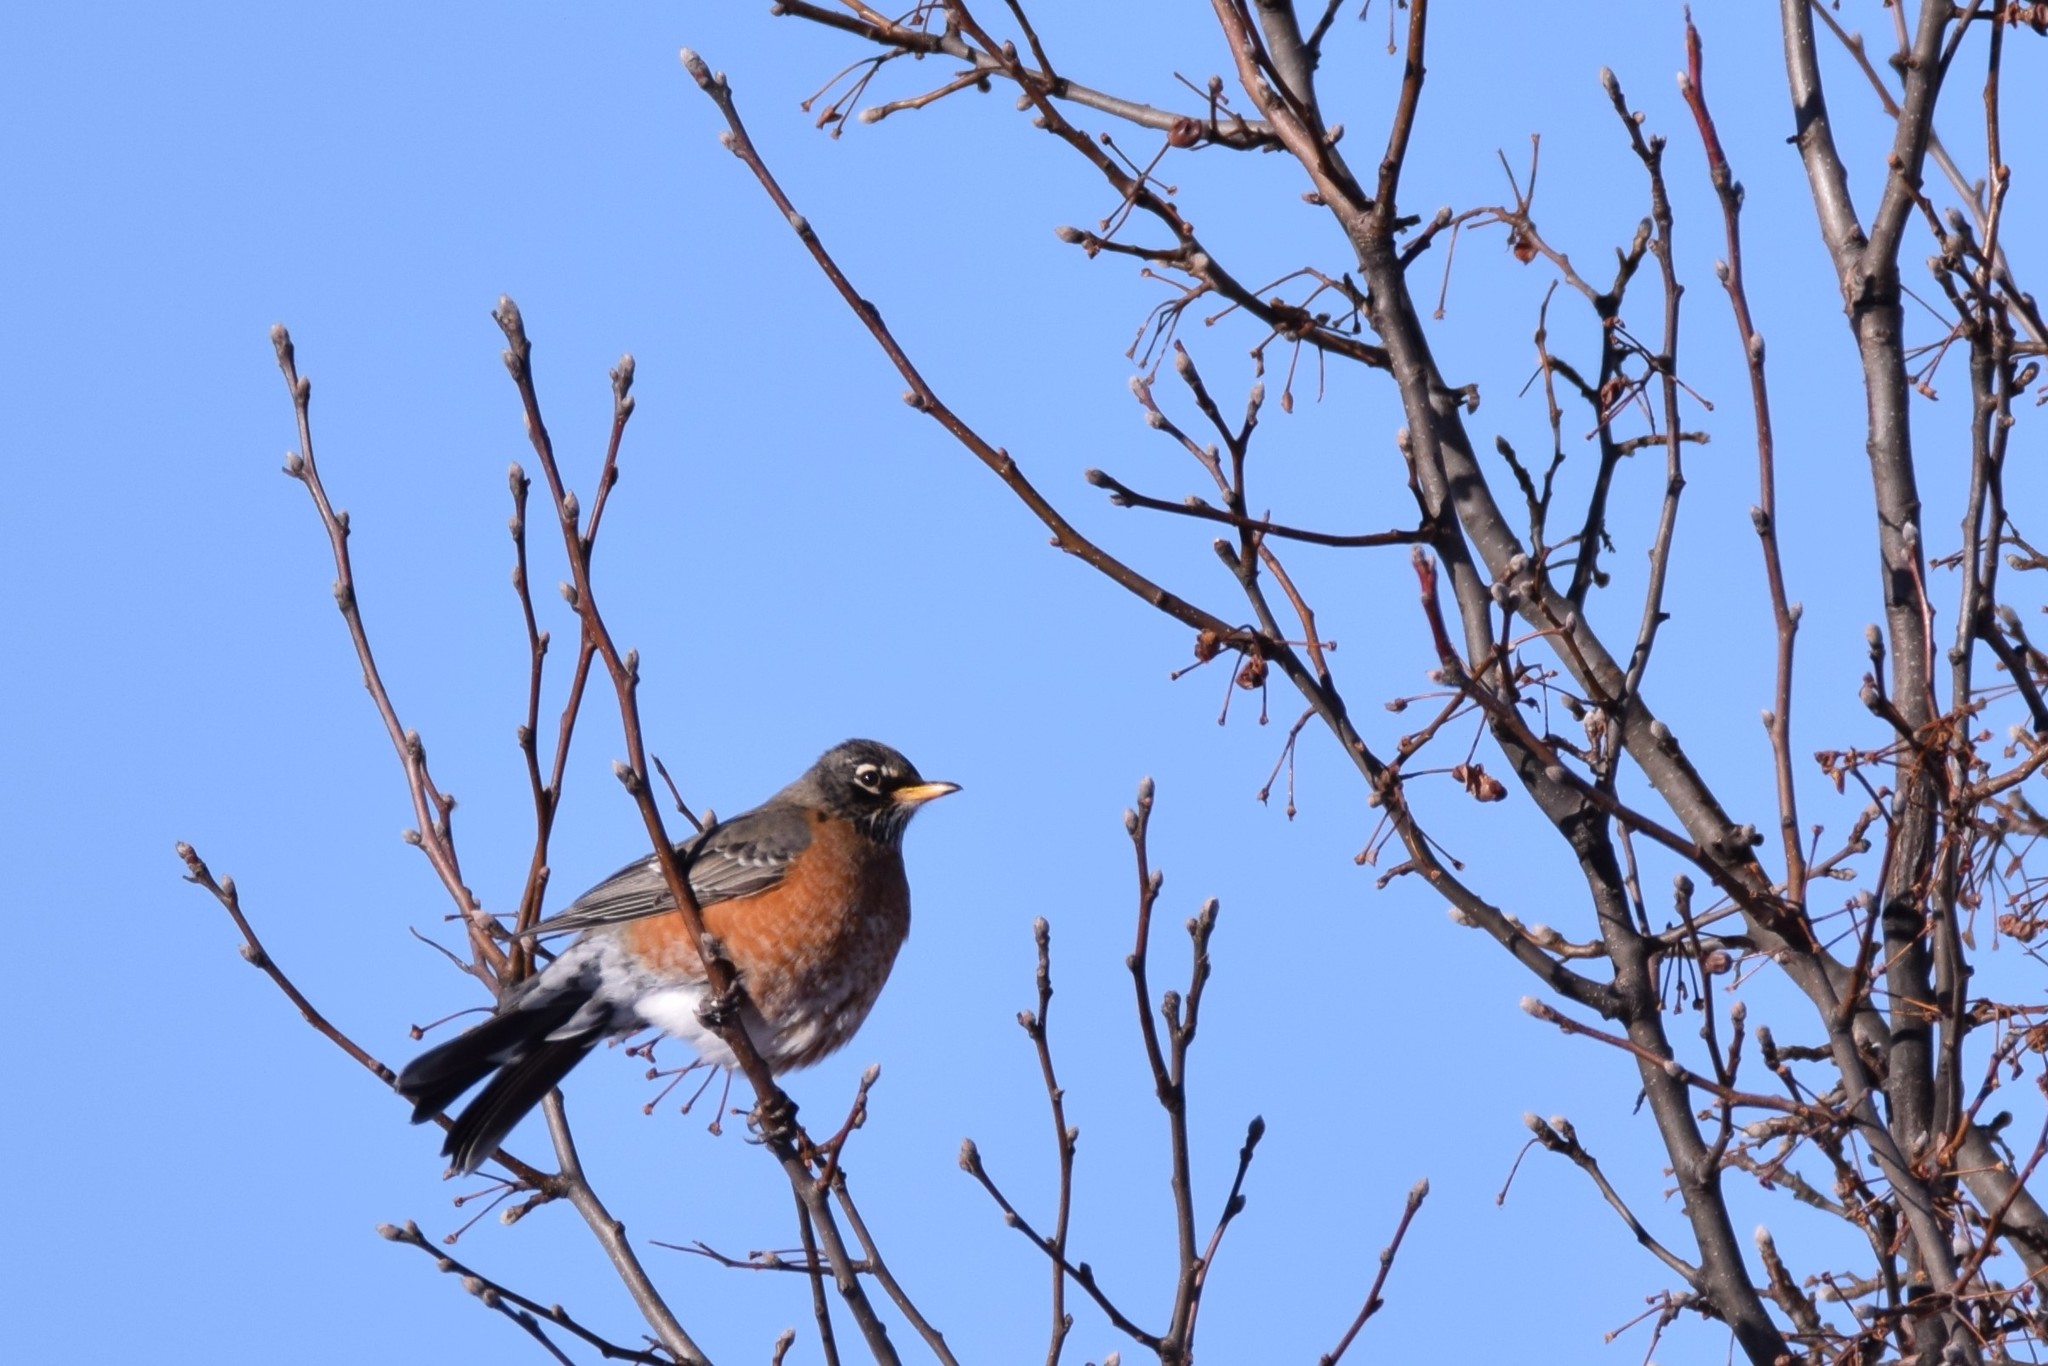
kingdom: Animalia
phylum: Chordata
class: Aves
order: Passeriformes
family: Turdidae
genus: Turdus
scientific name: Turdus migratorius
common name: American robin
